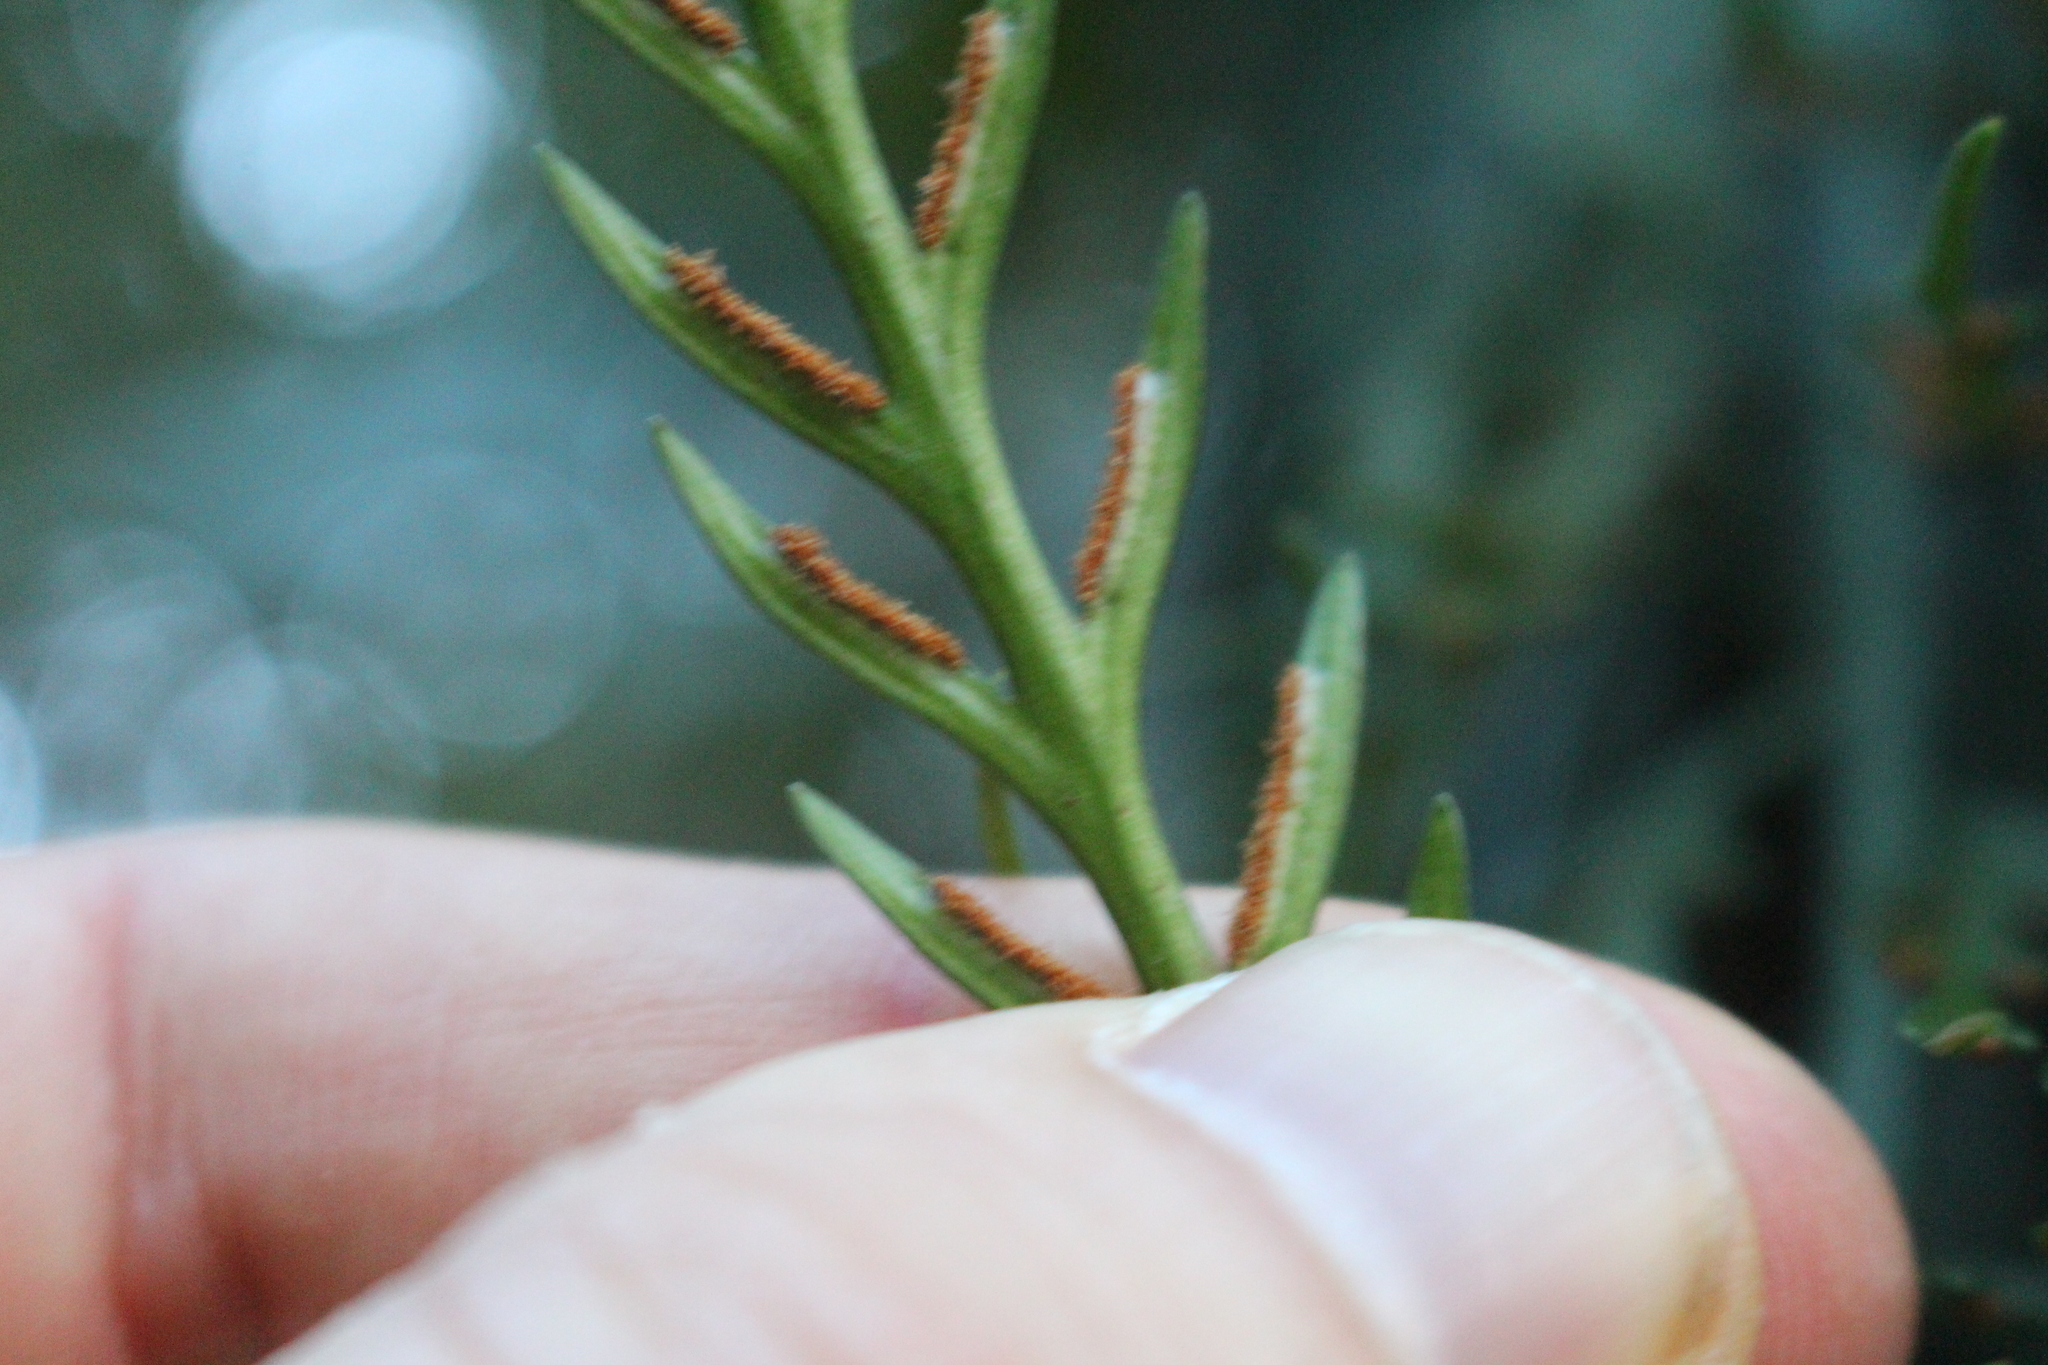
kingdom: Plantae
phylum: Tracheophyta
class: Polypodiopsida
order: Polypodiales
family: Aspleniaceae
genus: Asplenium
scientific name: Asplenium flaccidum
